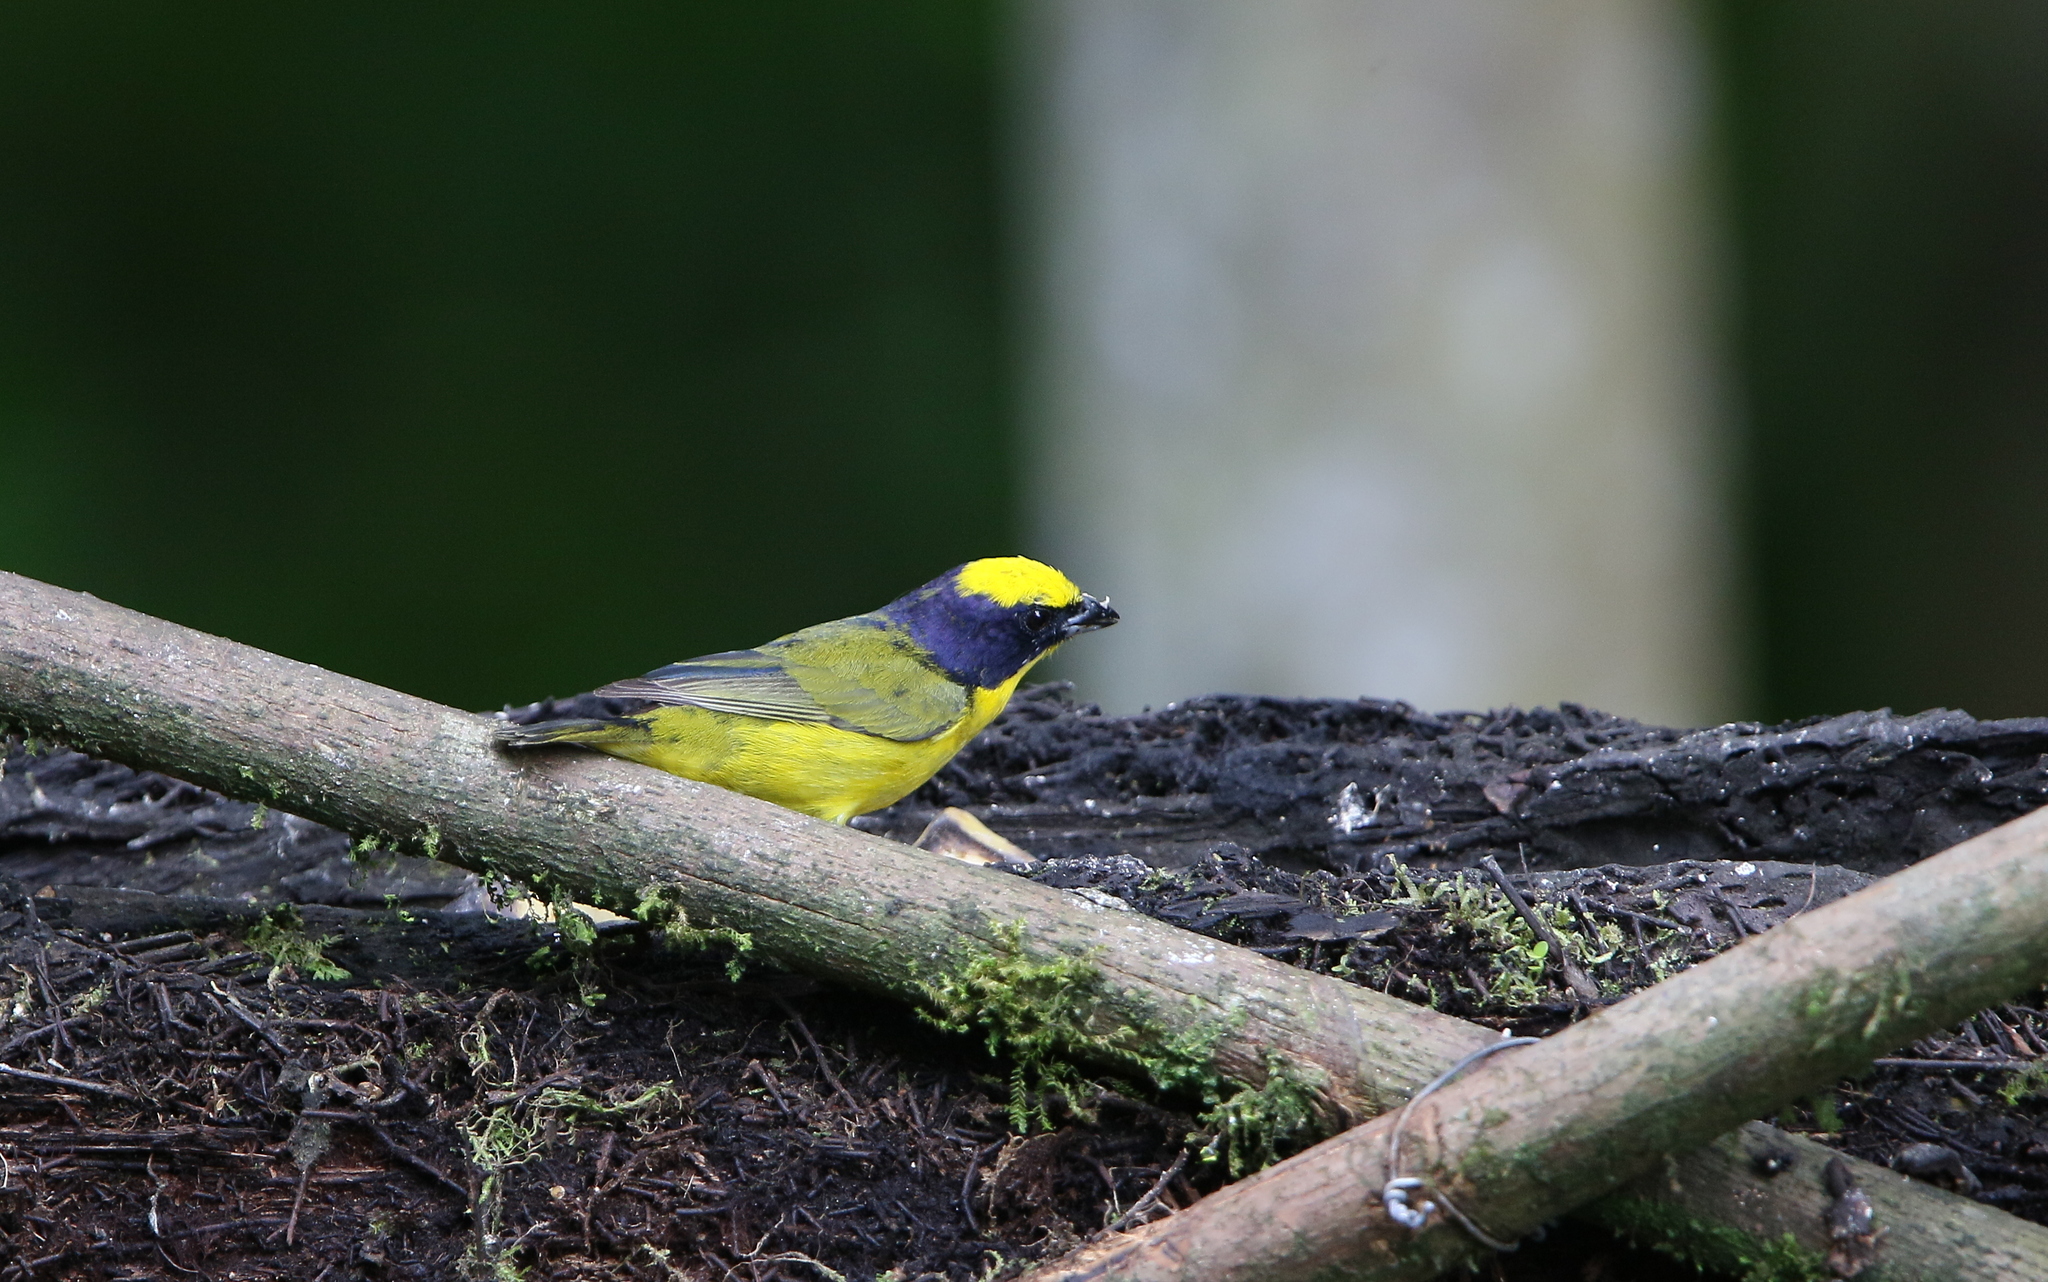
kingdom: Animalia
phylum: Chordata
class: Aves
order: Passeriformes
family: Fringillidae
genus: Euphonia
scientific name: Euphonia laniirostris
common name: Thick-billed euphonia
